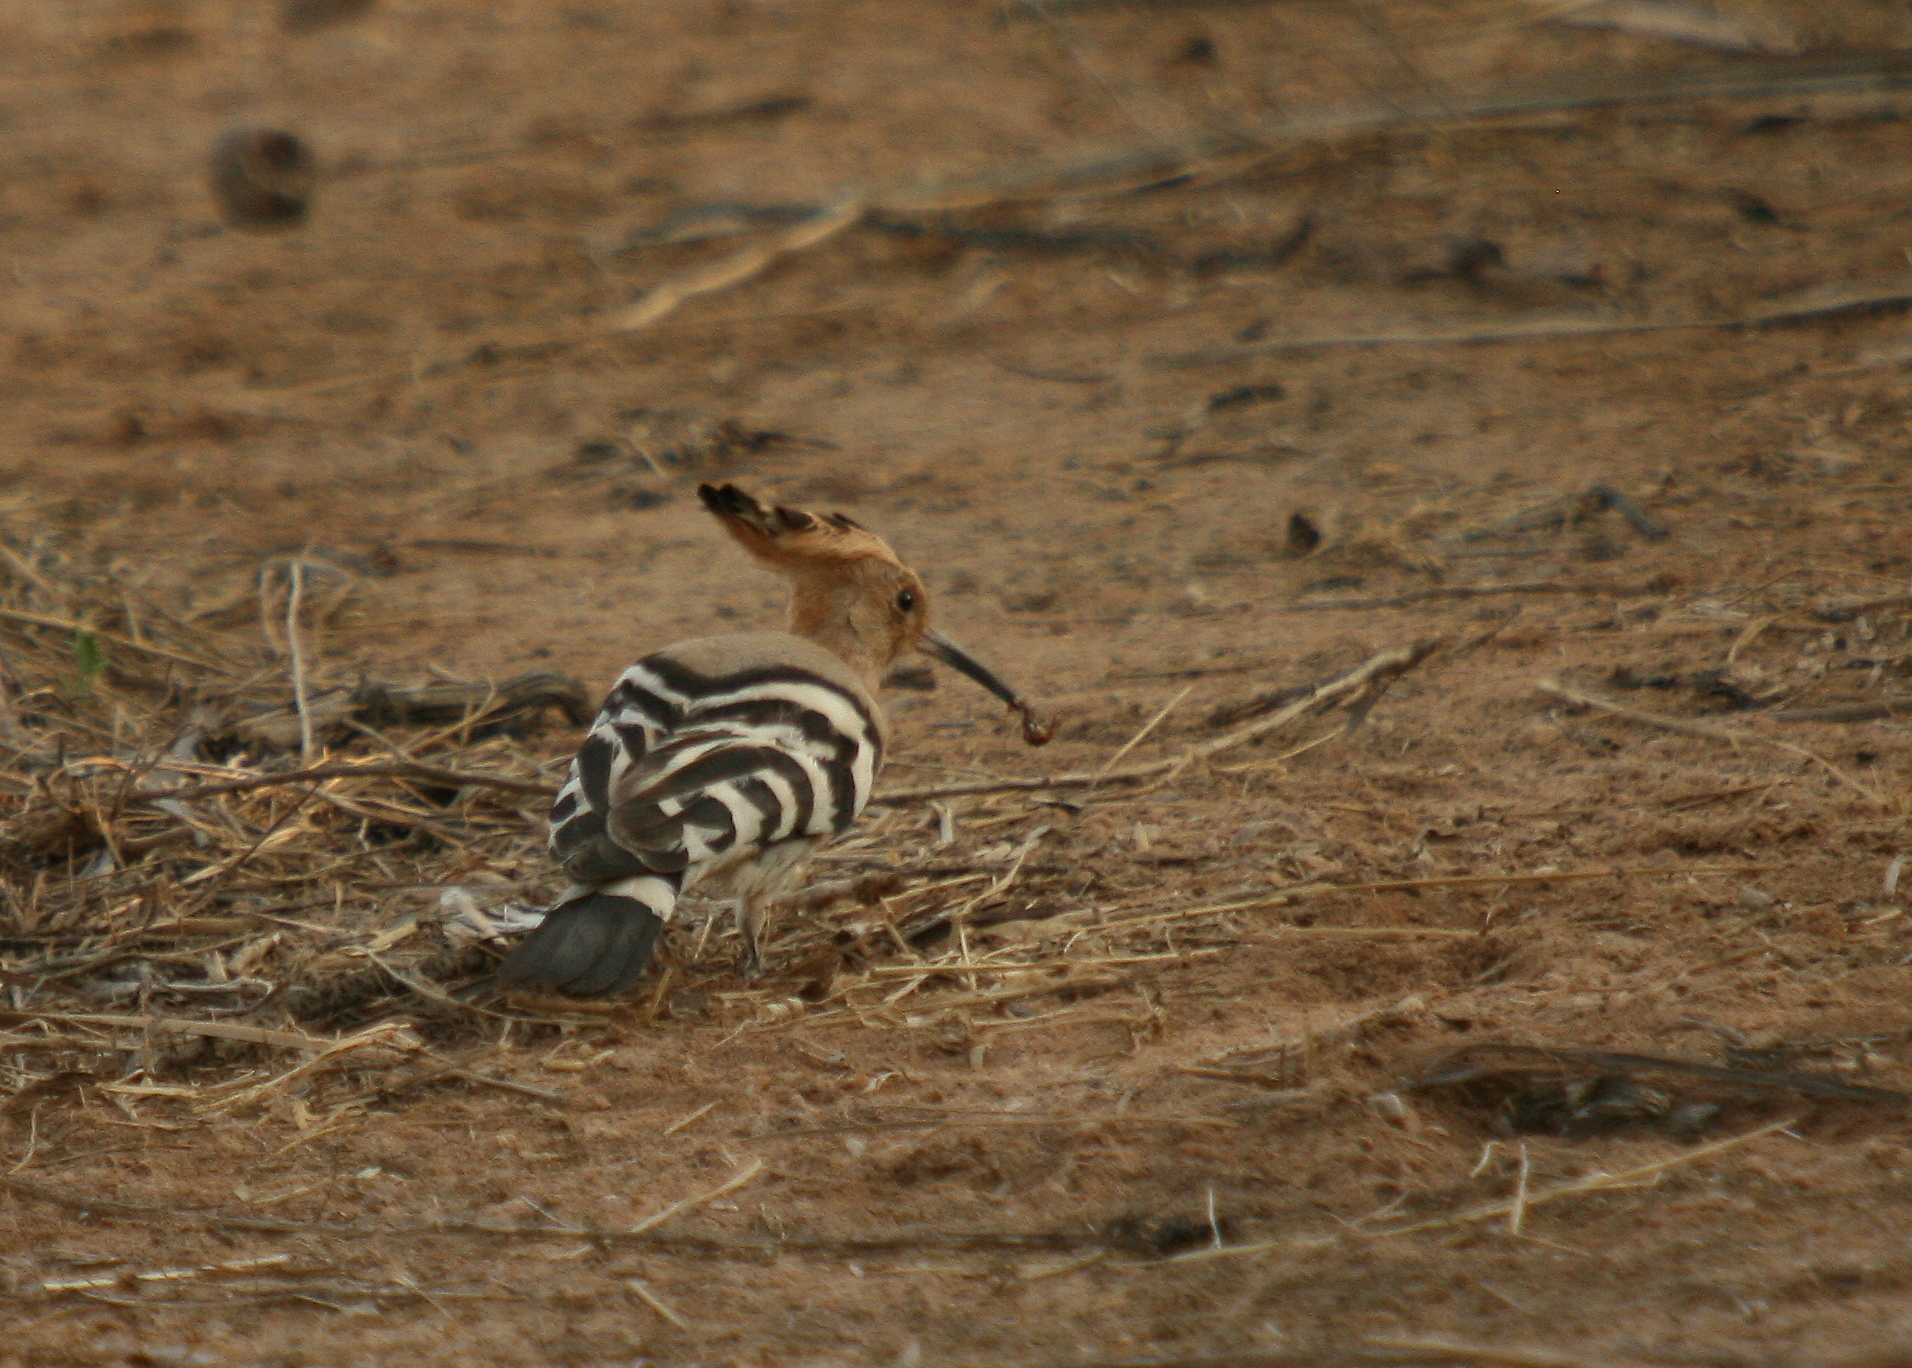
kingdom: Animalia
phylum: Chordata
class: Aves
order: Bucerotiformes
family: Upupidae
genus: Upupa
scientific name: Upupa epops
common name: Eurasian hoopoe
